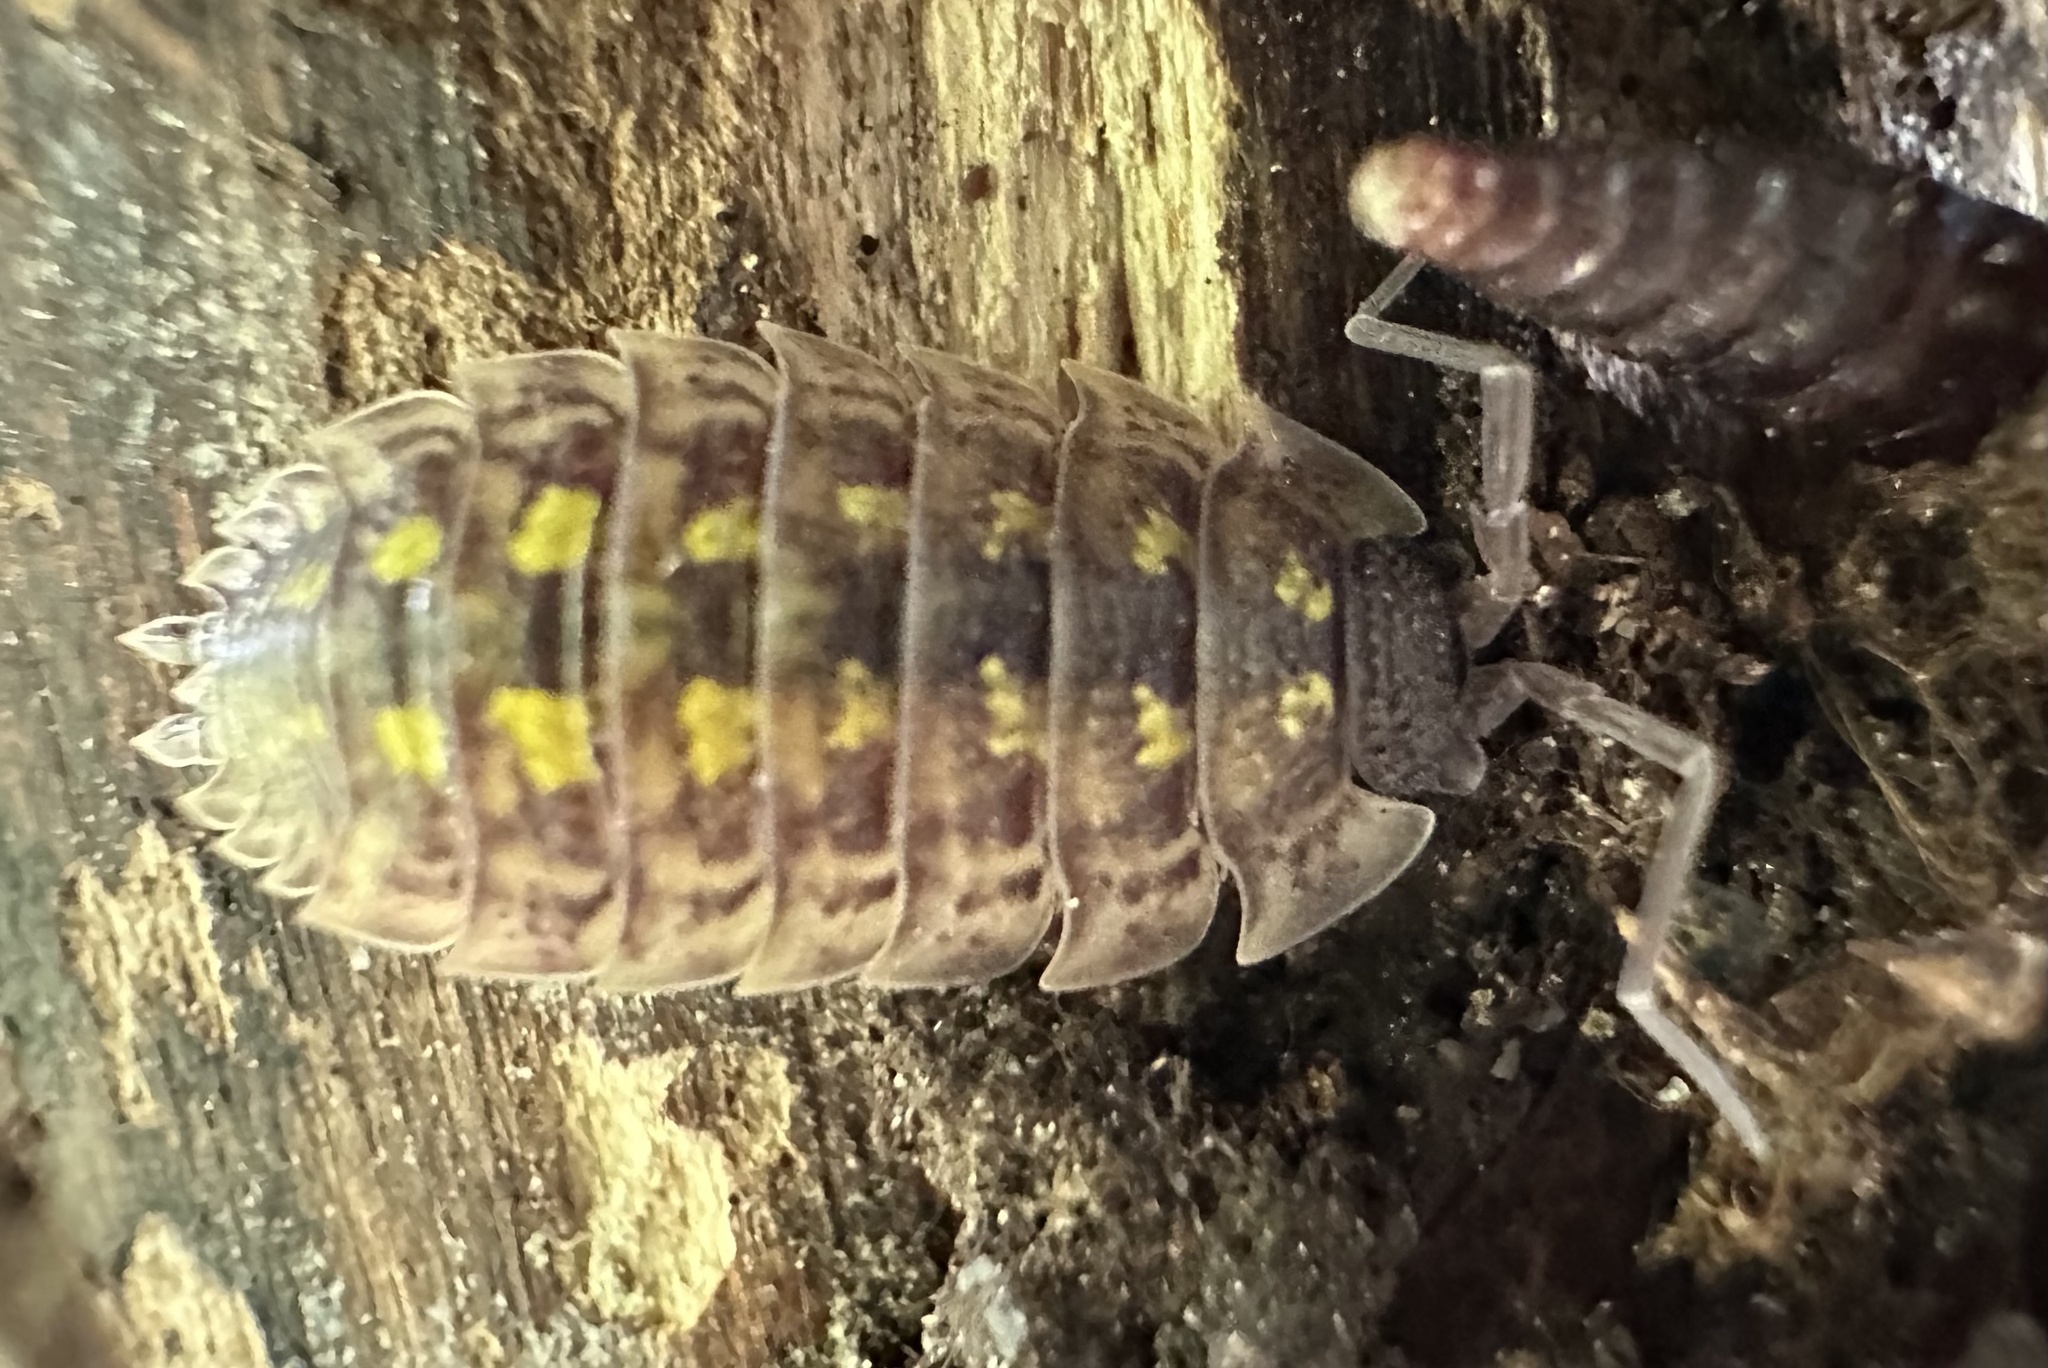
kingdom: Animalia
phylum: Arthropoda
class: Malacostraca
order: Isopoda
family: Porcellionidae
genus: Porcellio
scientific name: Porcellio spinicornis
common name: Painted woodlouse
